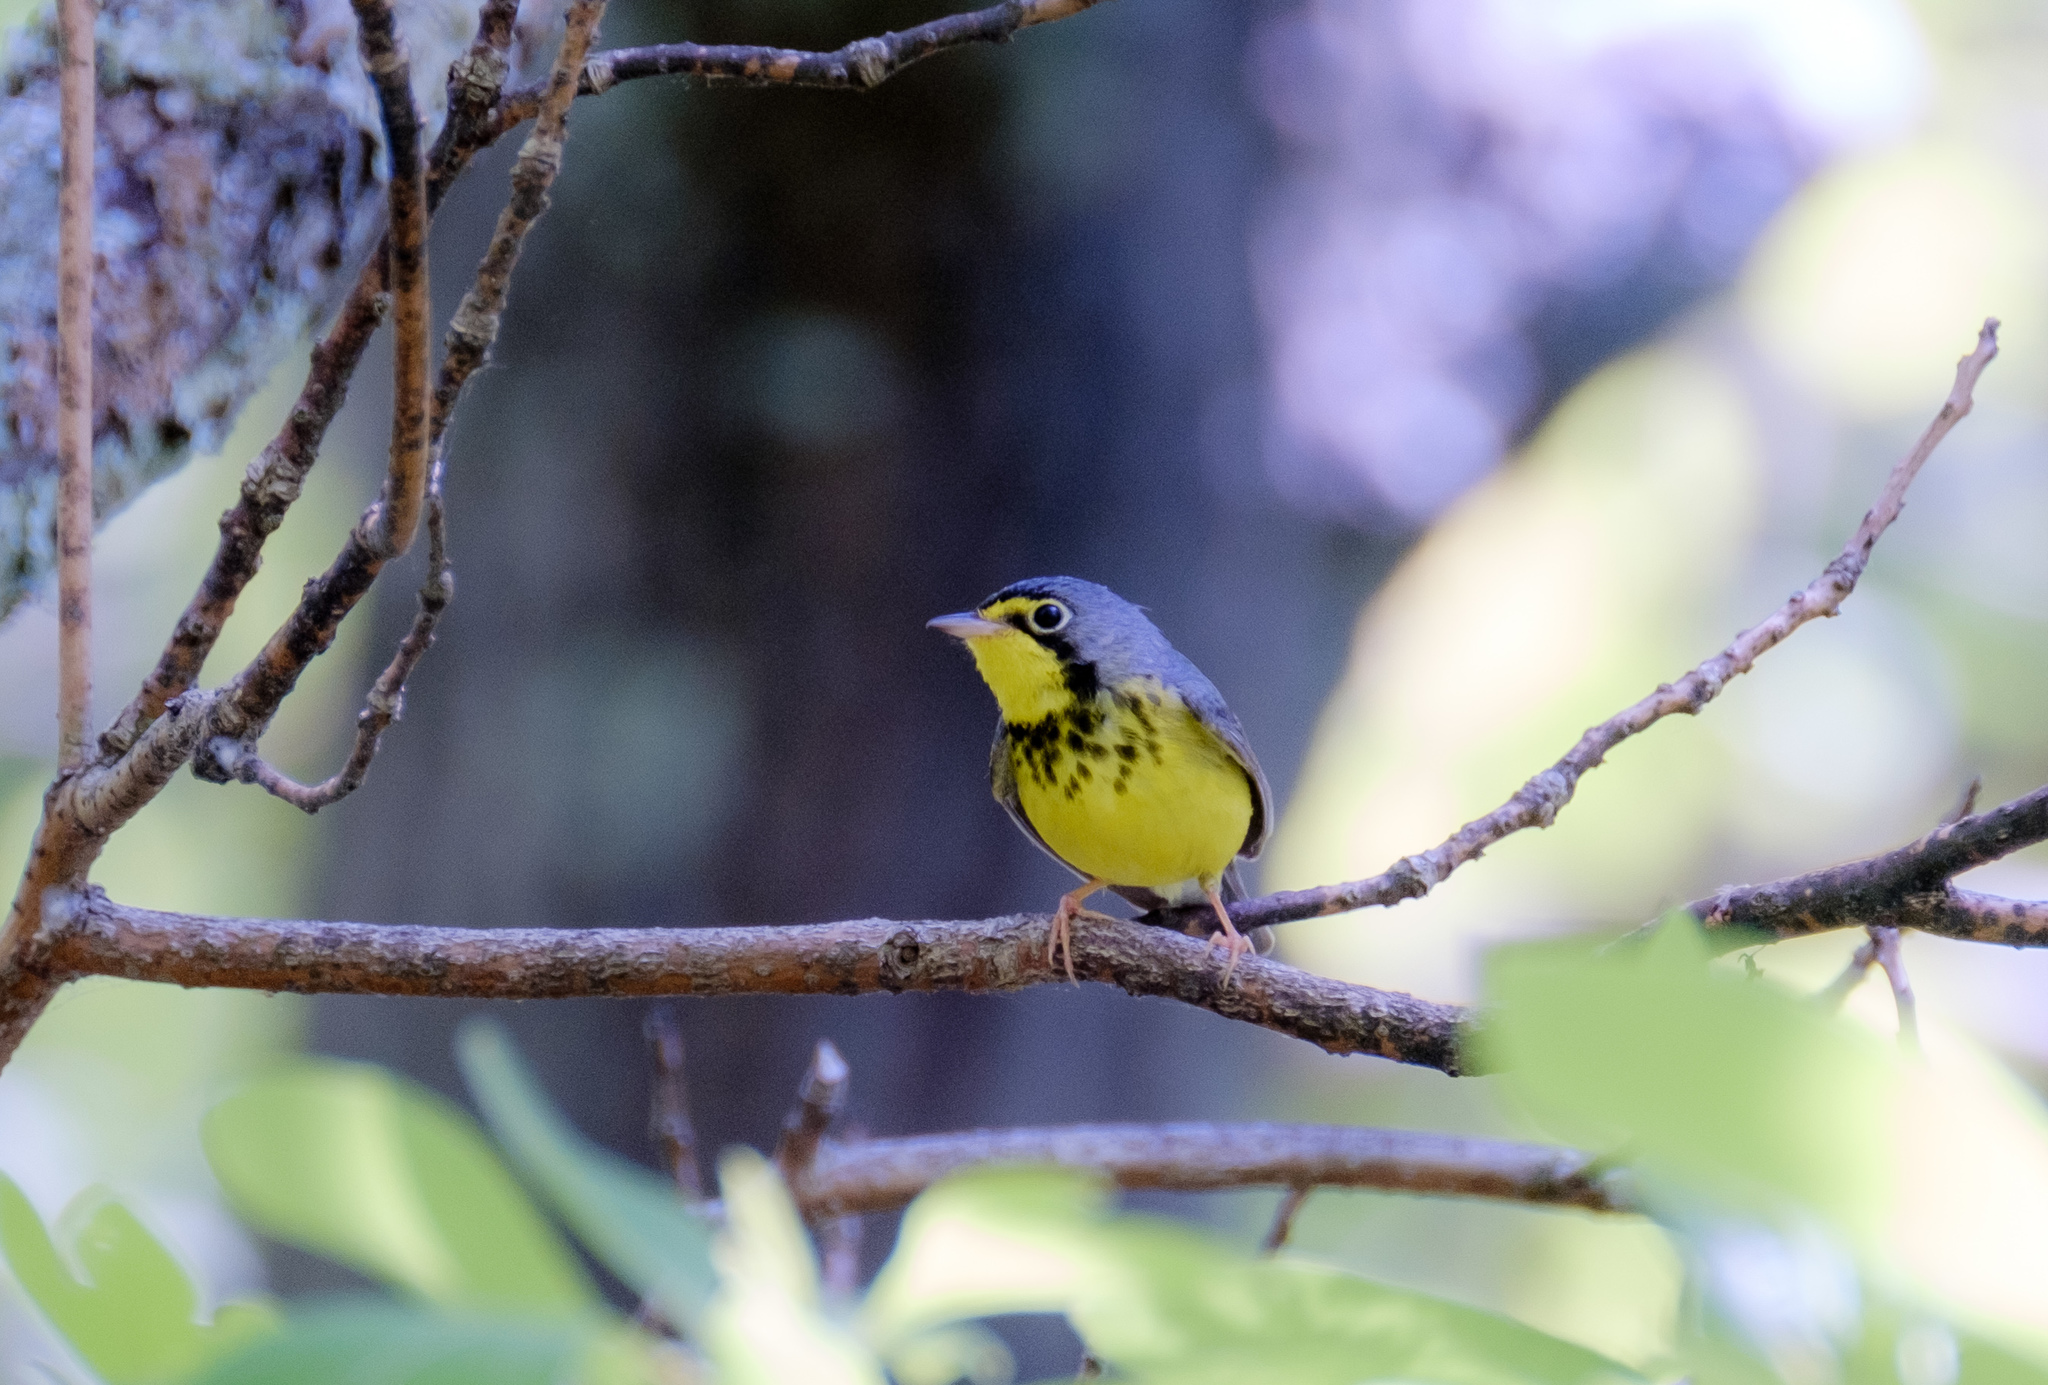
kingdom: Animalia
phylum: Chordata
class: Aves
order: Passeriformes
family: Parulidae
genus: Cardellina
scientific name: Cardellina canadensis
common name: Canada warbler
